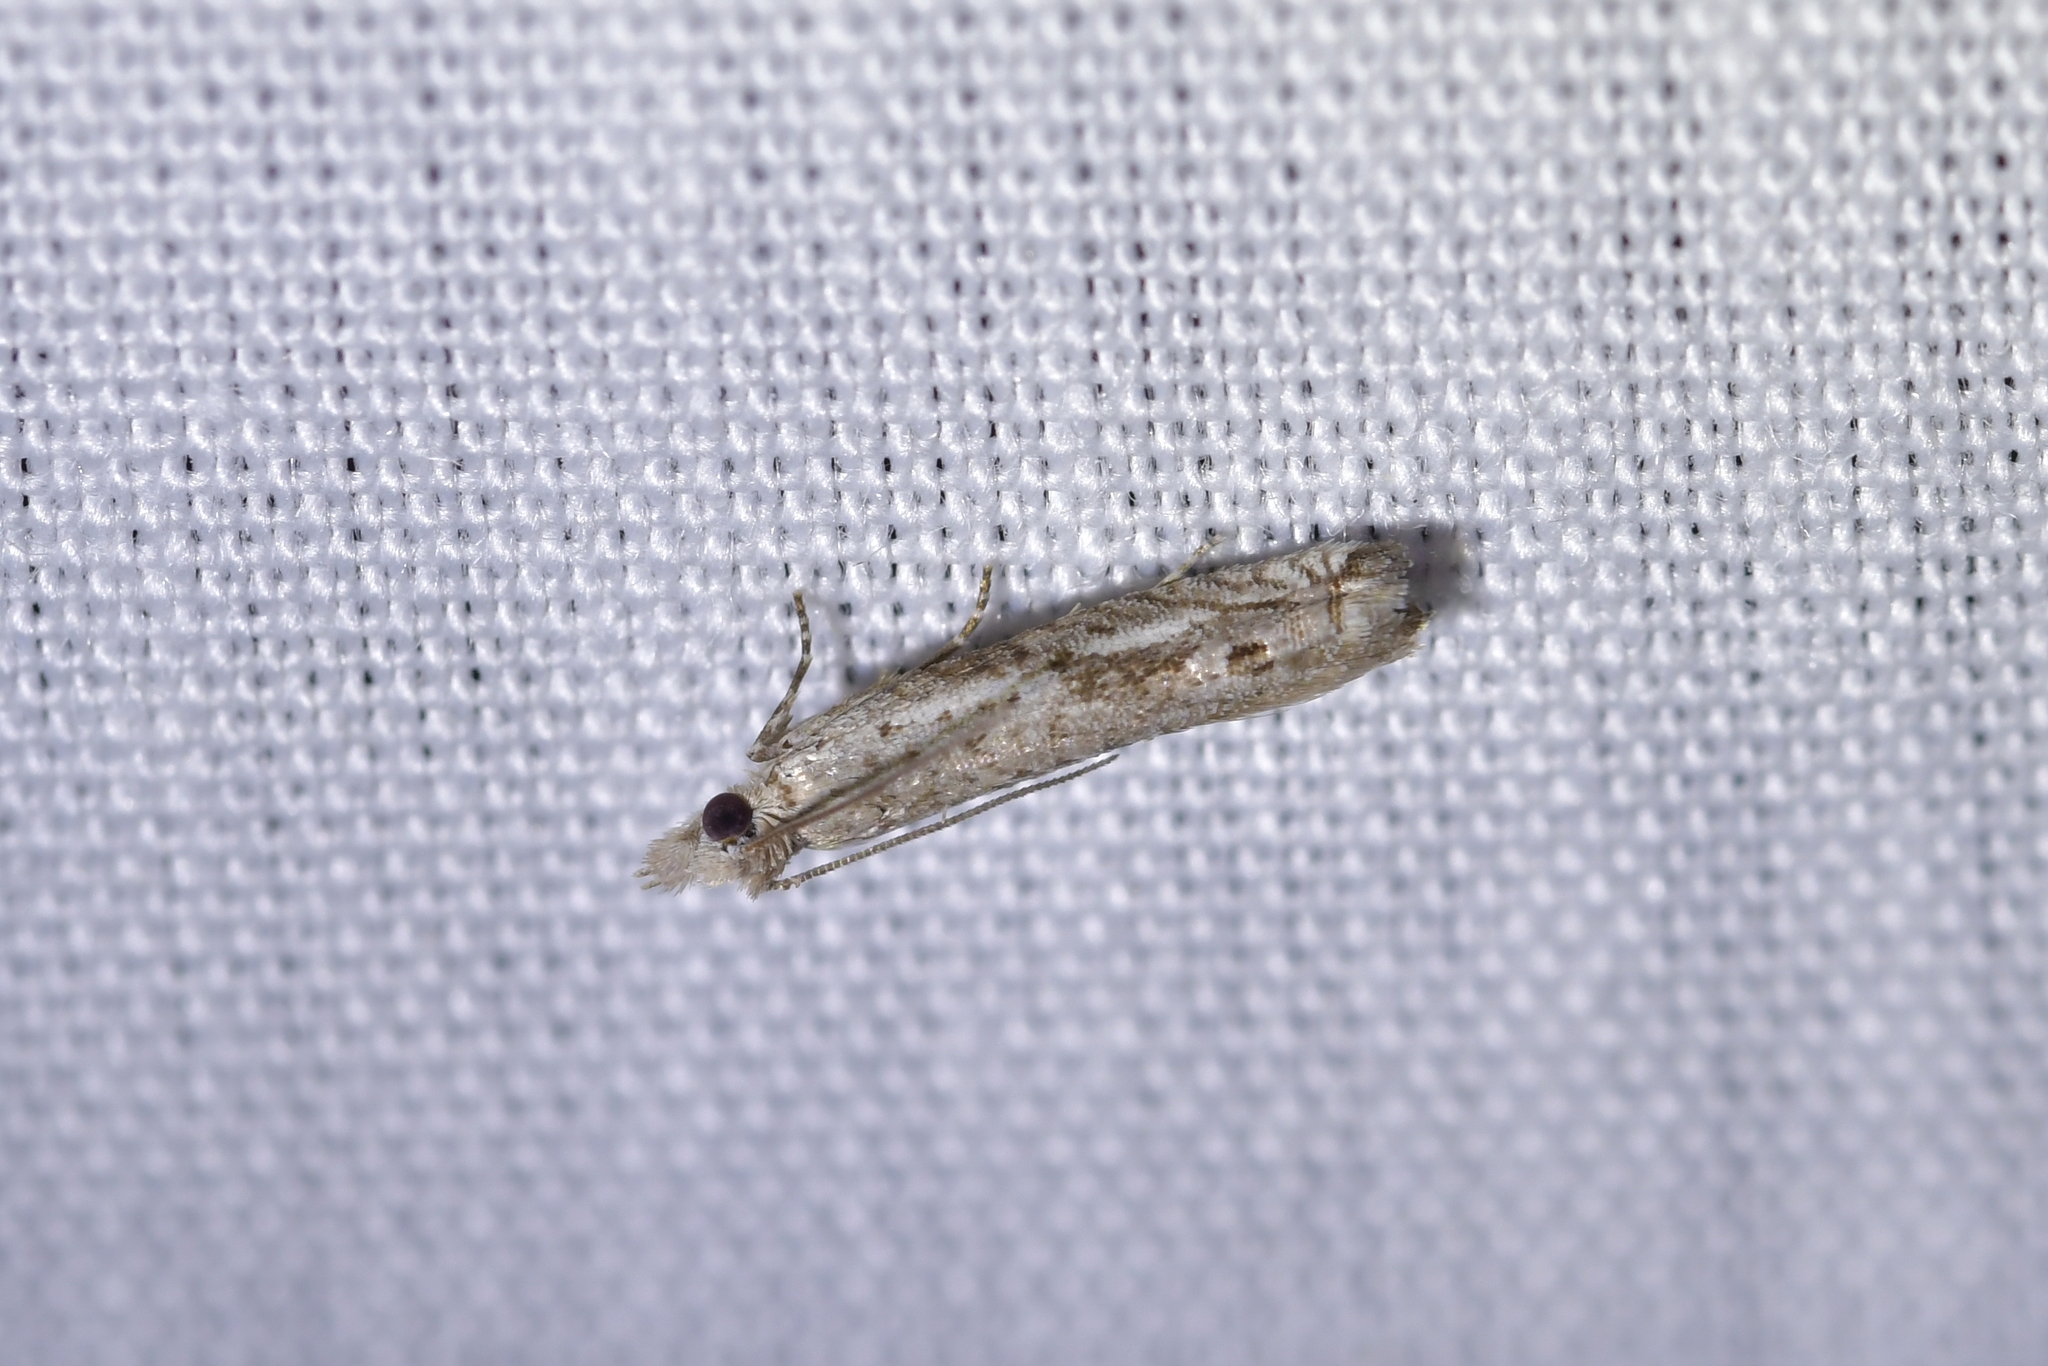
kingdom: Animalia
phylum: Arthropoda
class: Insecta
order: Lepidoptera
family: Tortricidae
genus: Holocola
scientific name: Holocola zopherana
